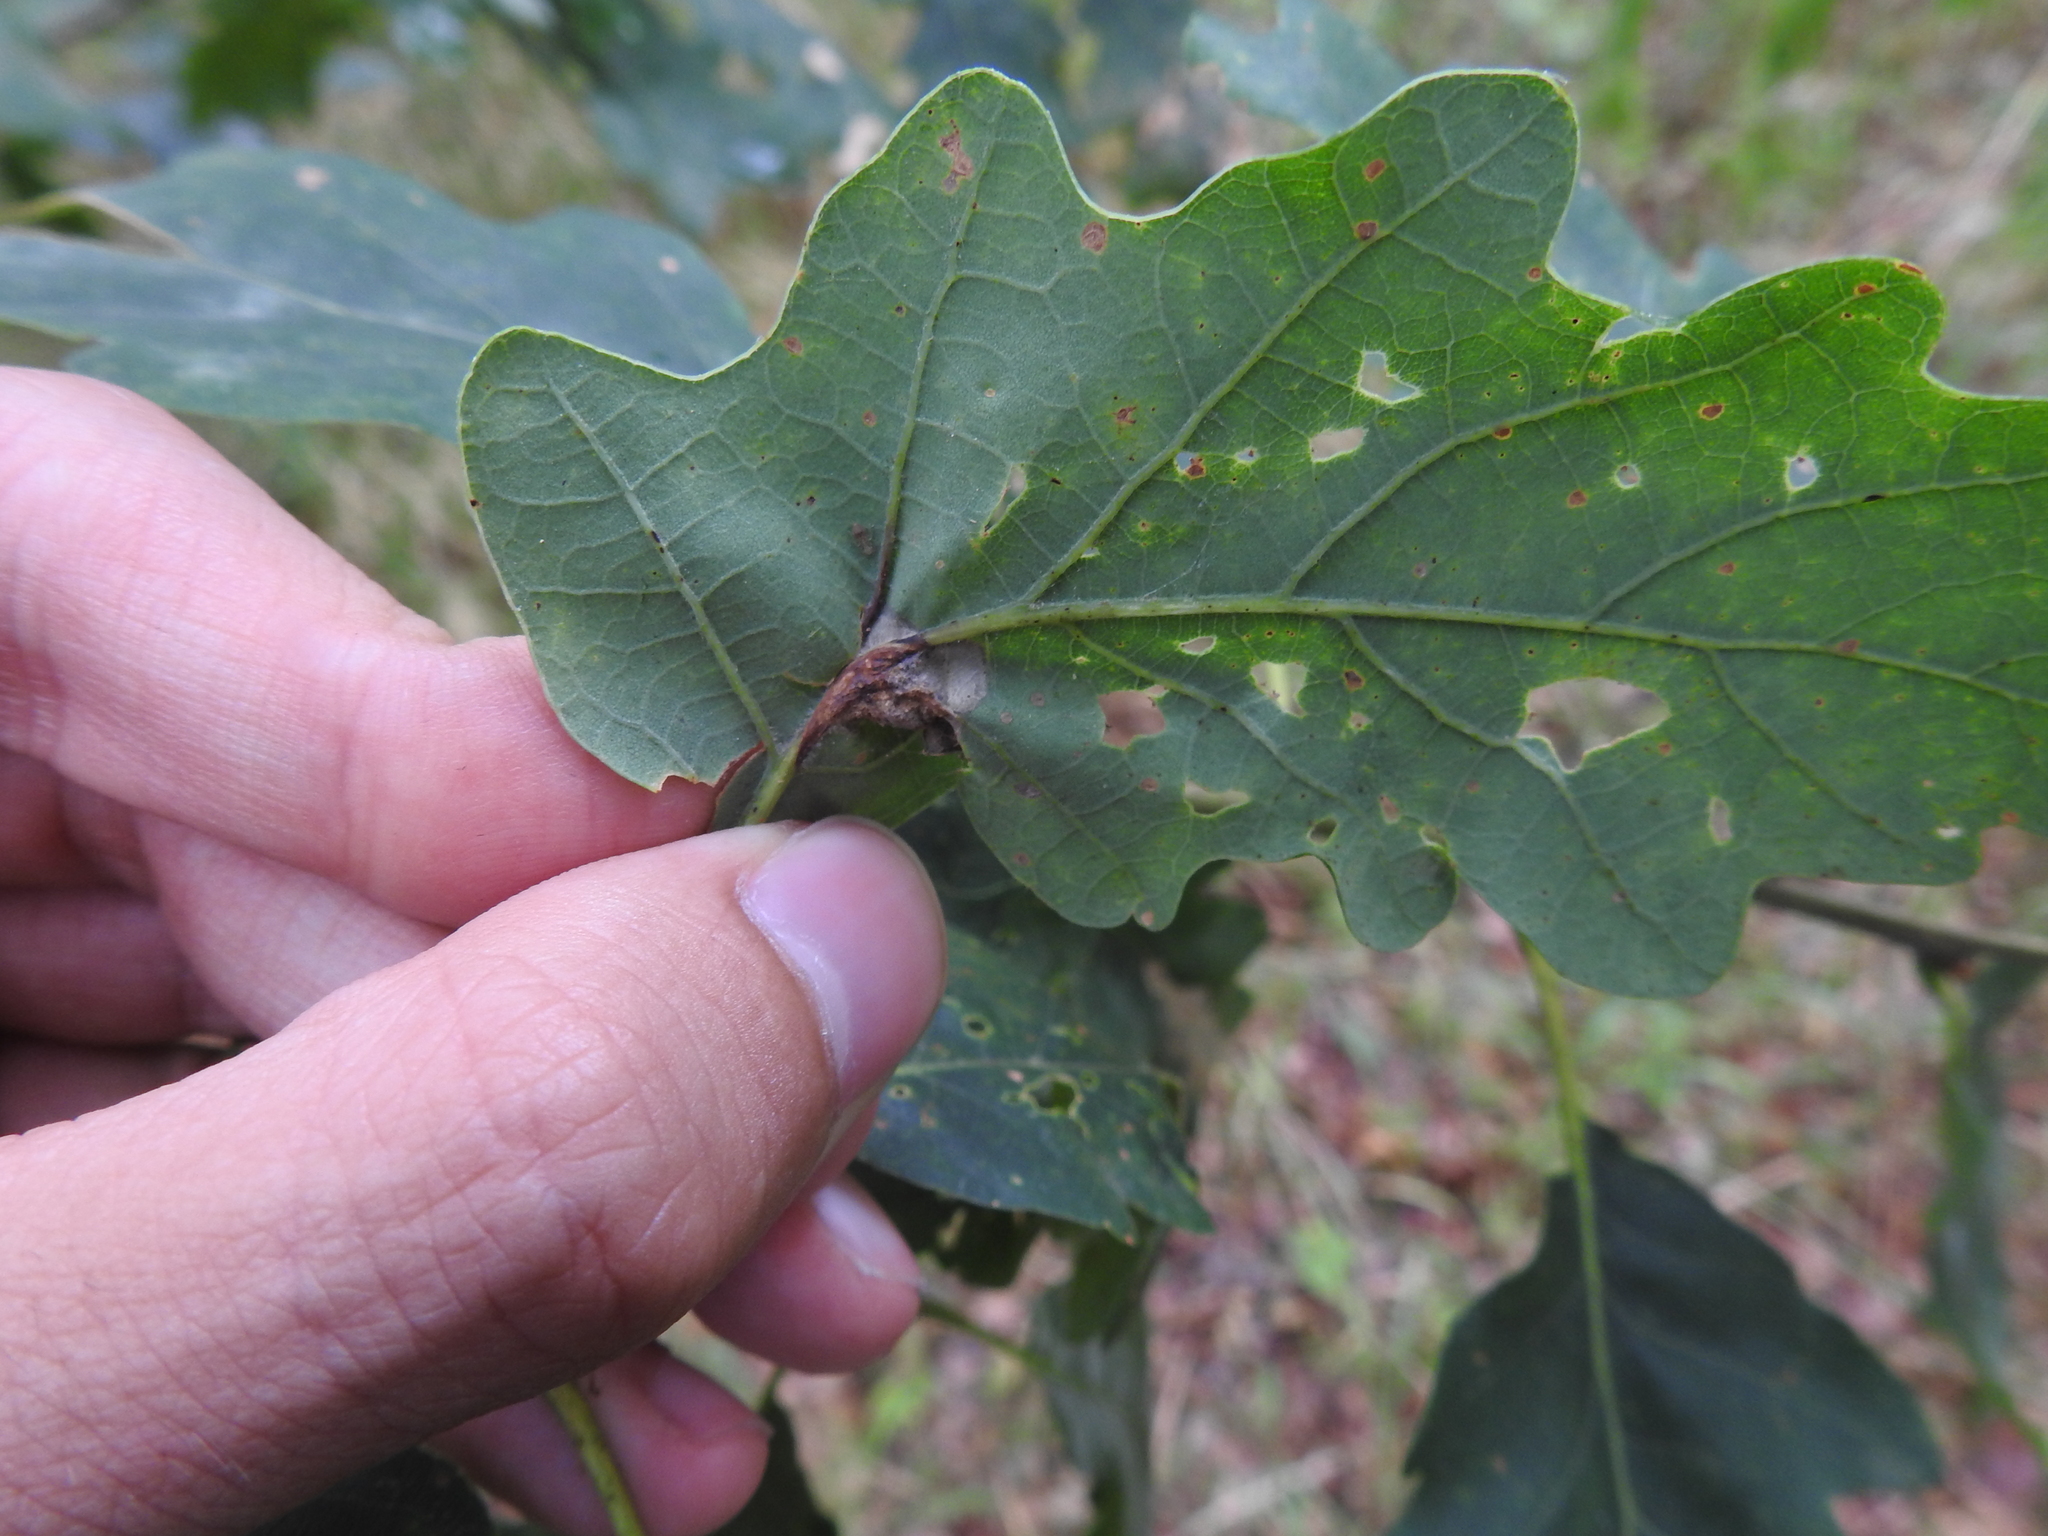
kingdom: Animalia
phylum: Arthropoda
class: Insecta
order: Hymenoptera
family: Cynipidae
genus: Andricus
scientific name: Andricus curvator
